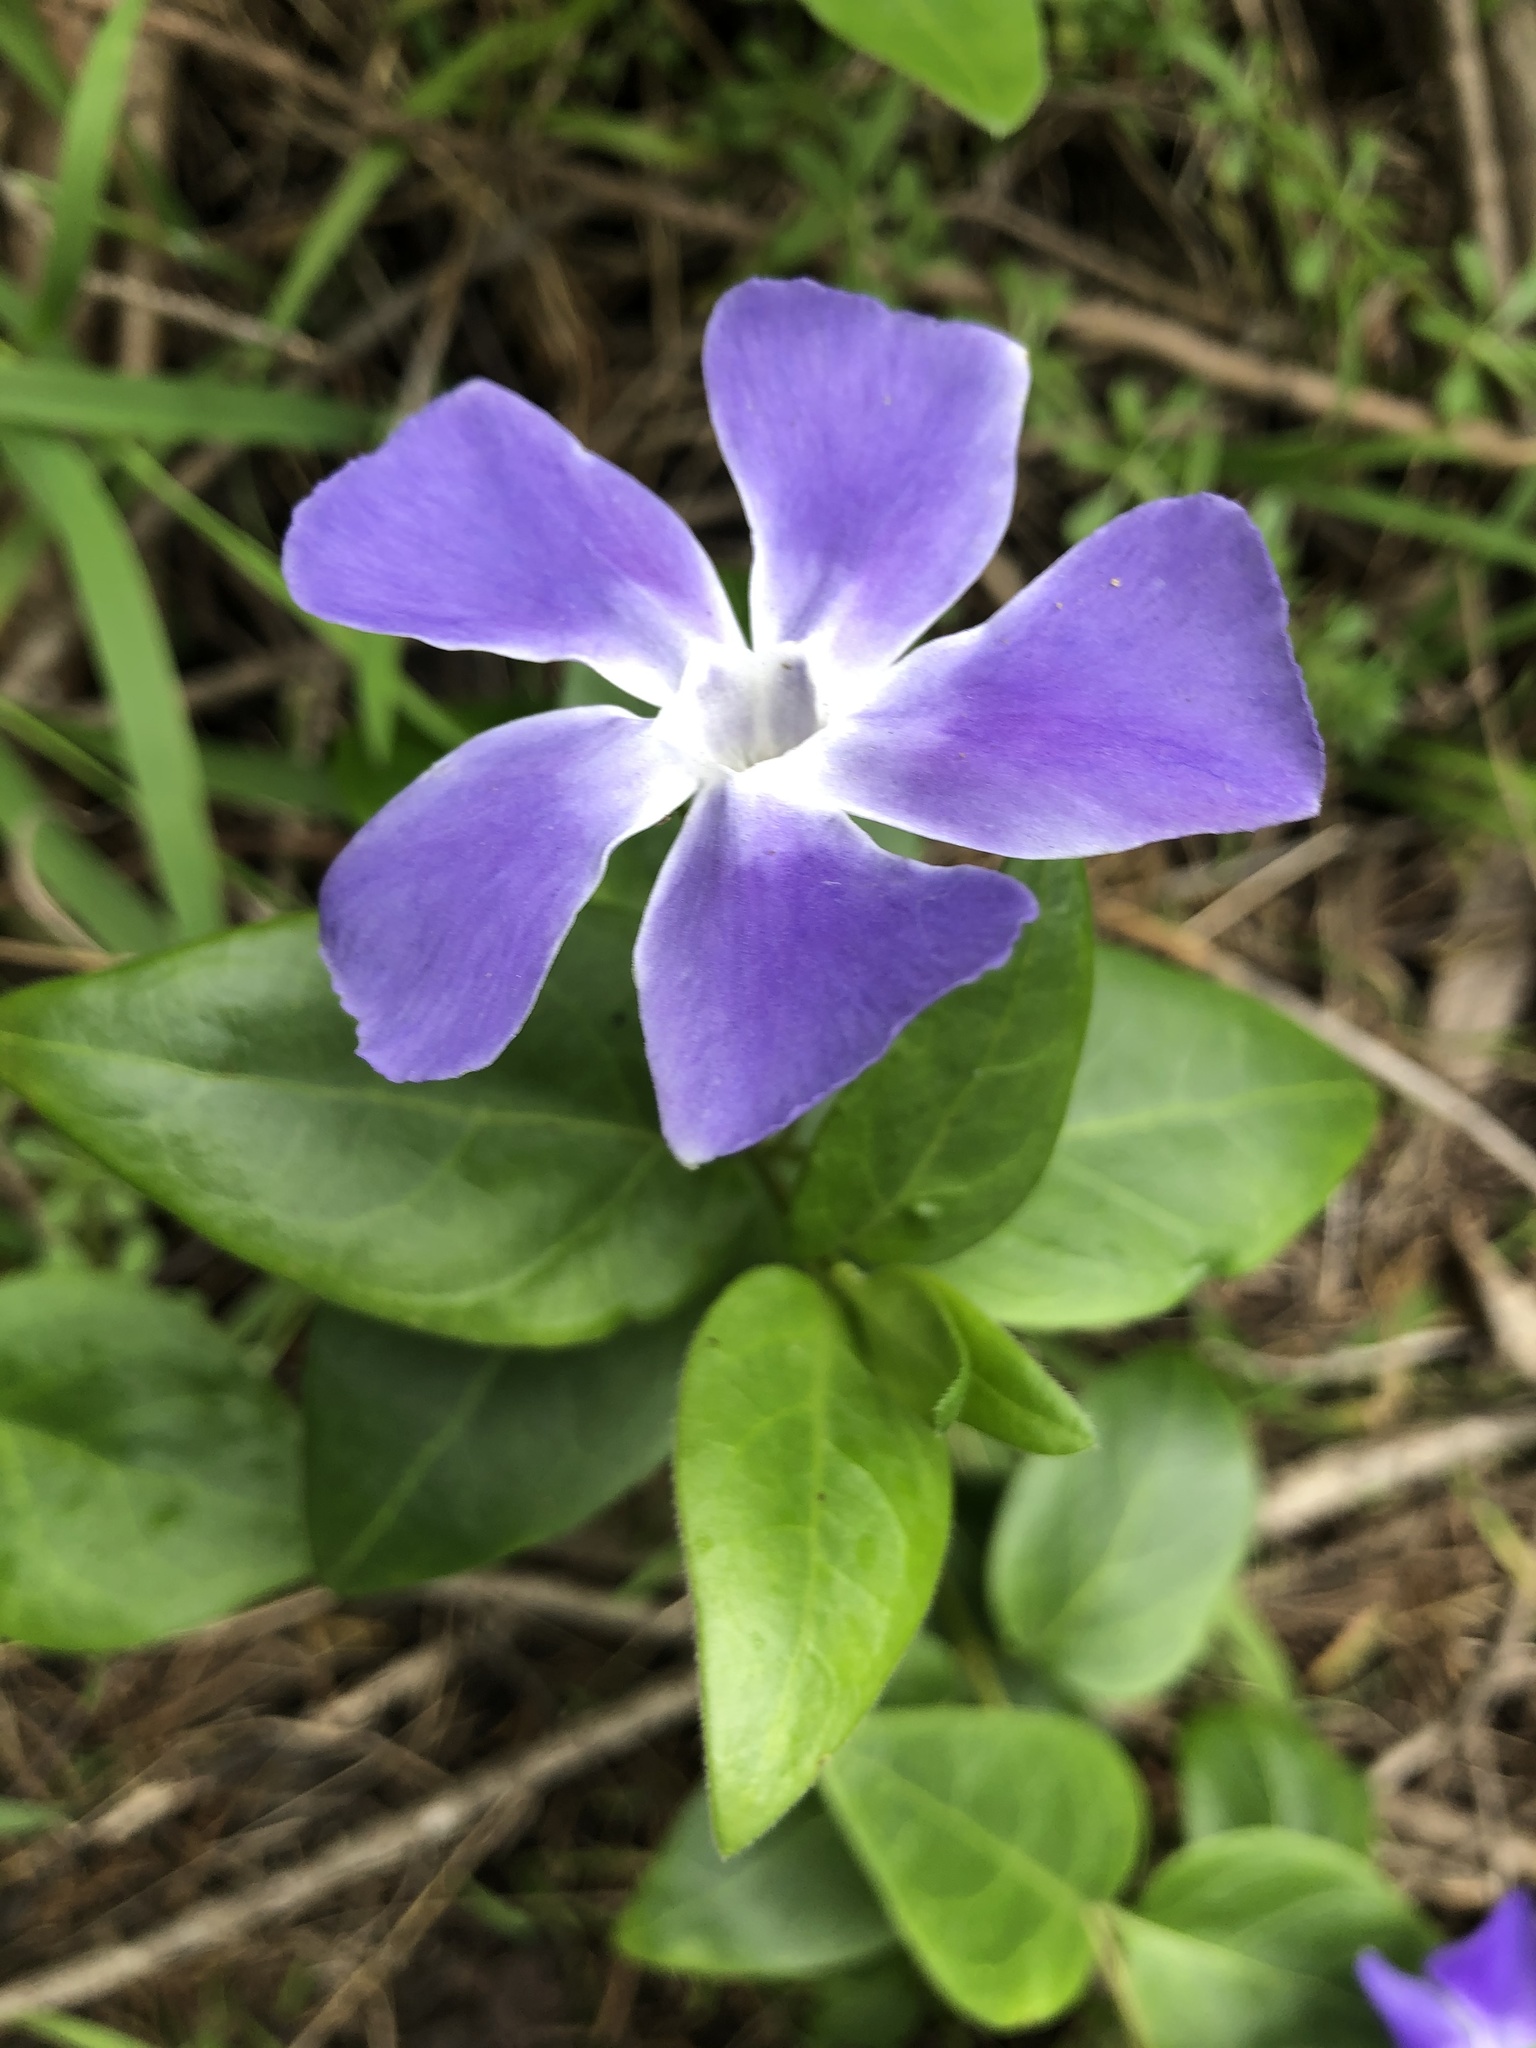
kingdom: Plantae
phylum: Tracheophyta
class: Magnoliopsida
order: Gentianales
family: Apocynaceae
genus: Vinca
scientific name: Vinca major
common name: Greater periwinkle
